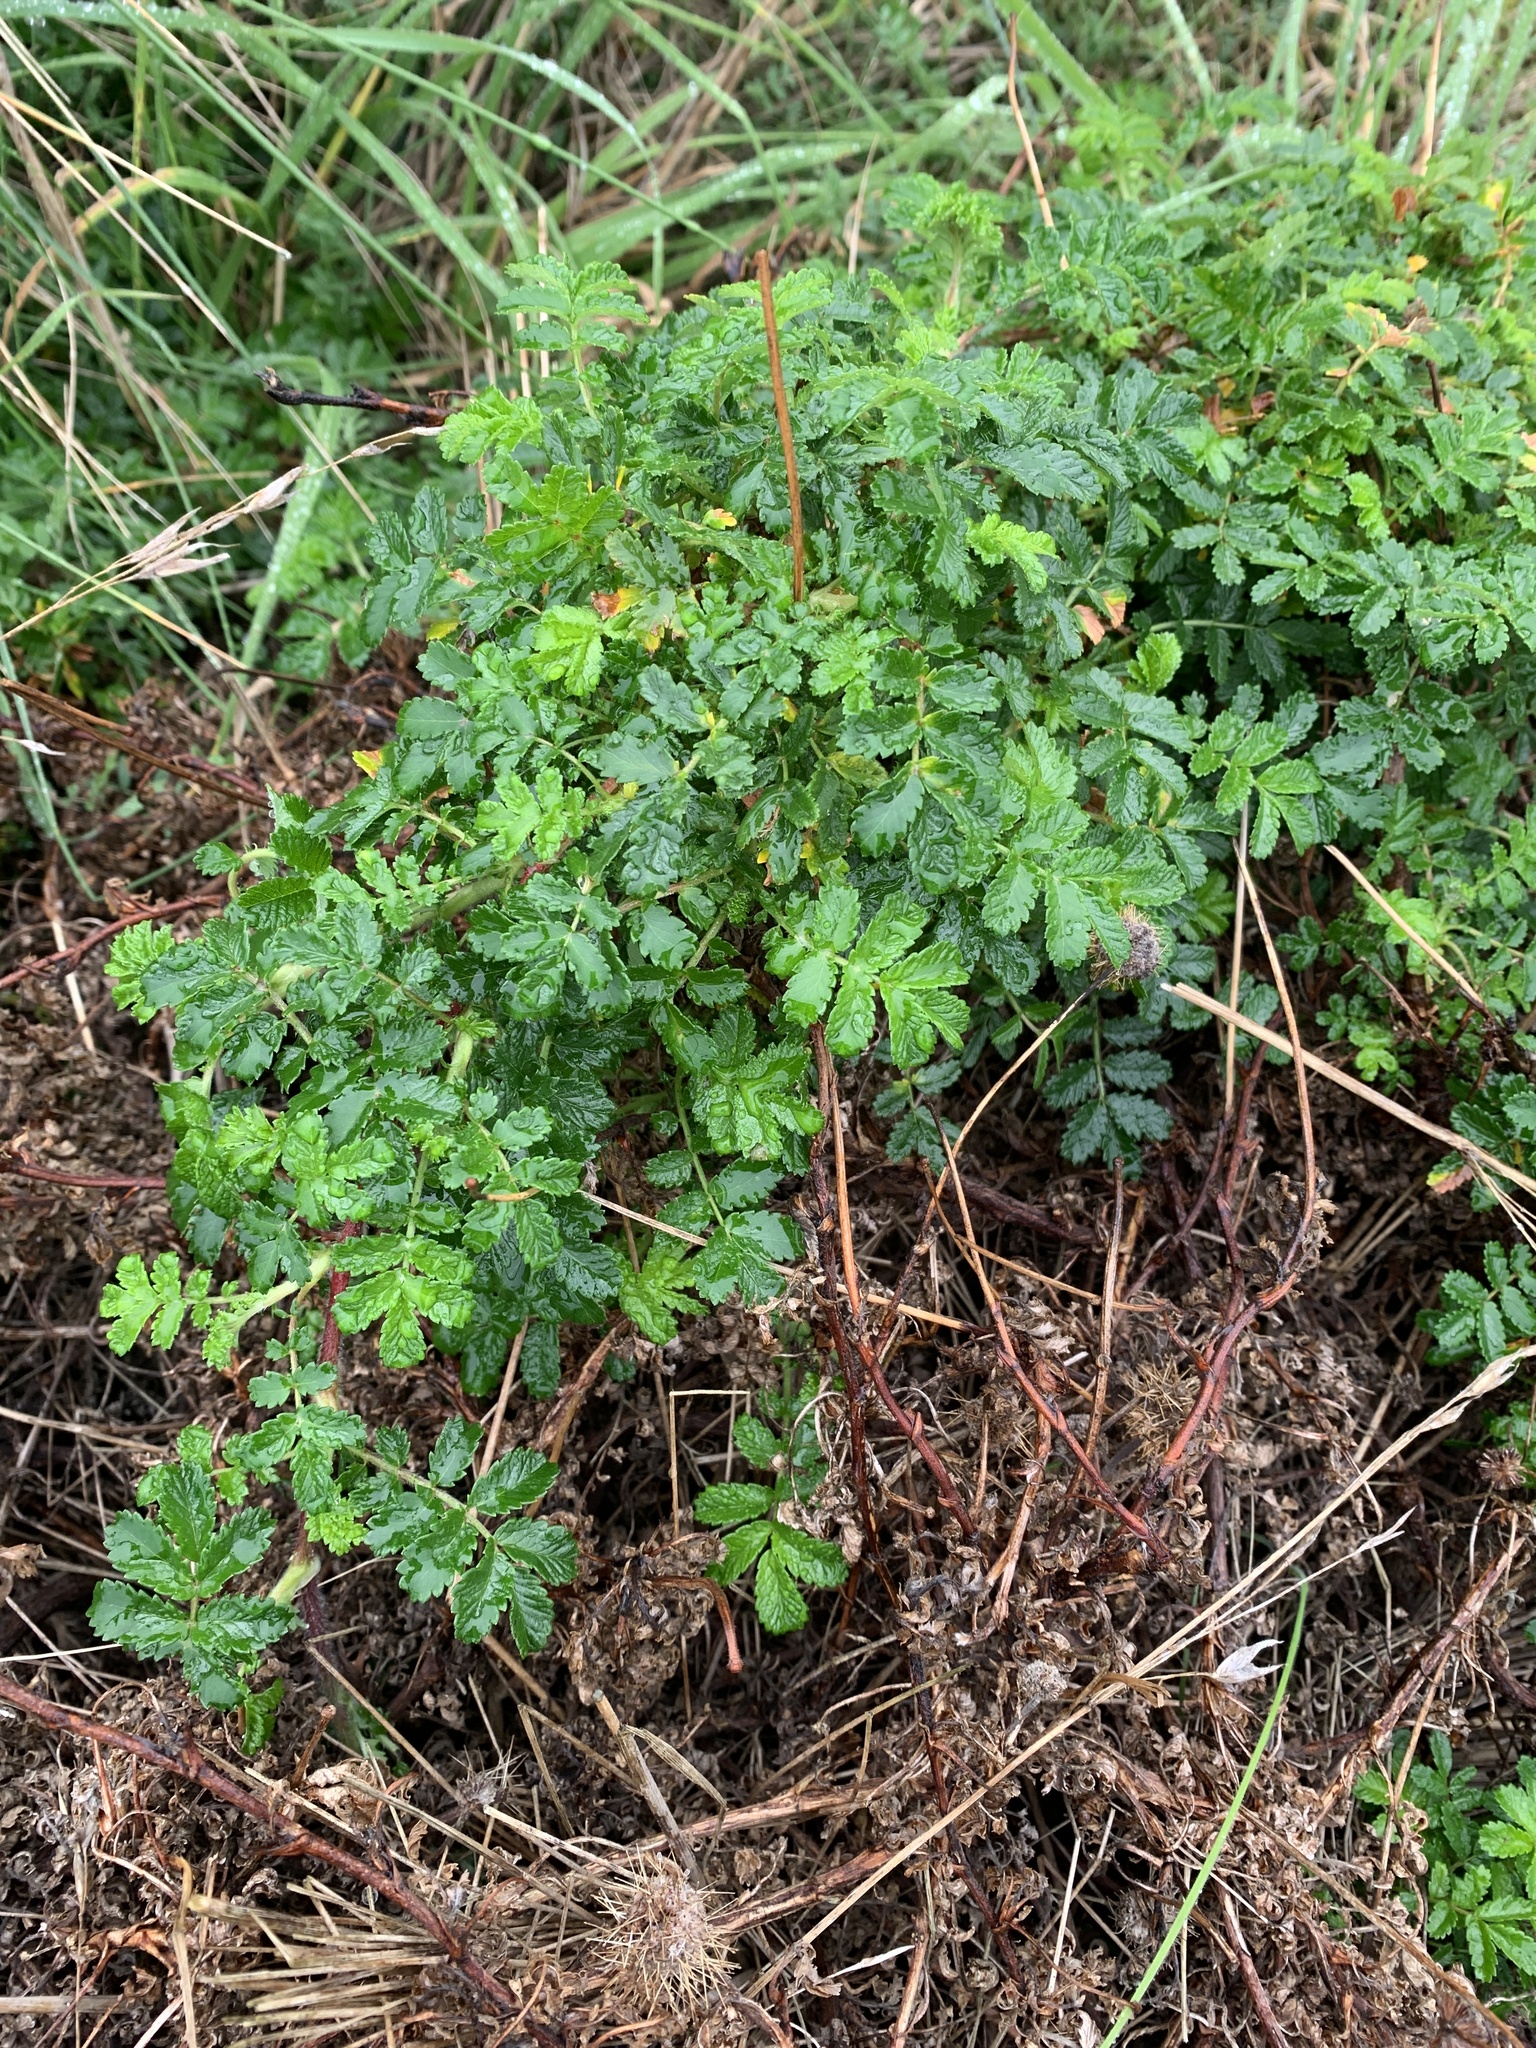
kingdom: Plantae
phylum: Tracheophyta
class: Magnoliopsida
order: Rosales
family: Rosaceae
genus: Acaena
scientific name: Acaena novae-zelandiae
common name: Pirri-pirri-bur
